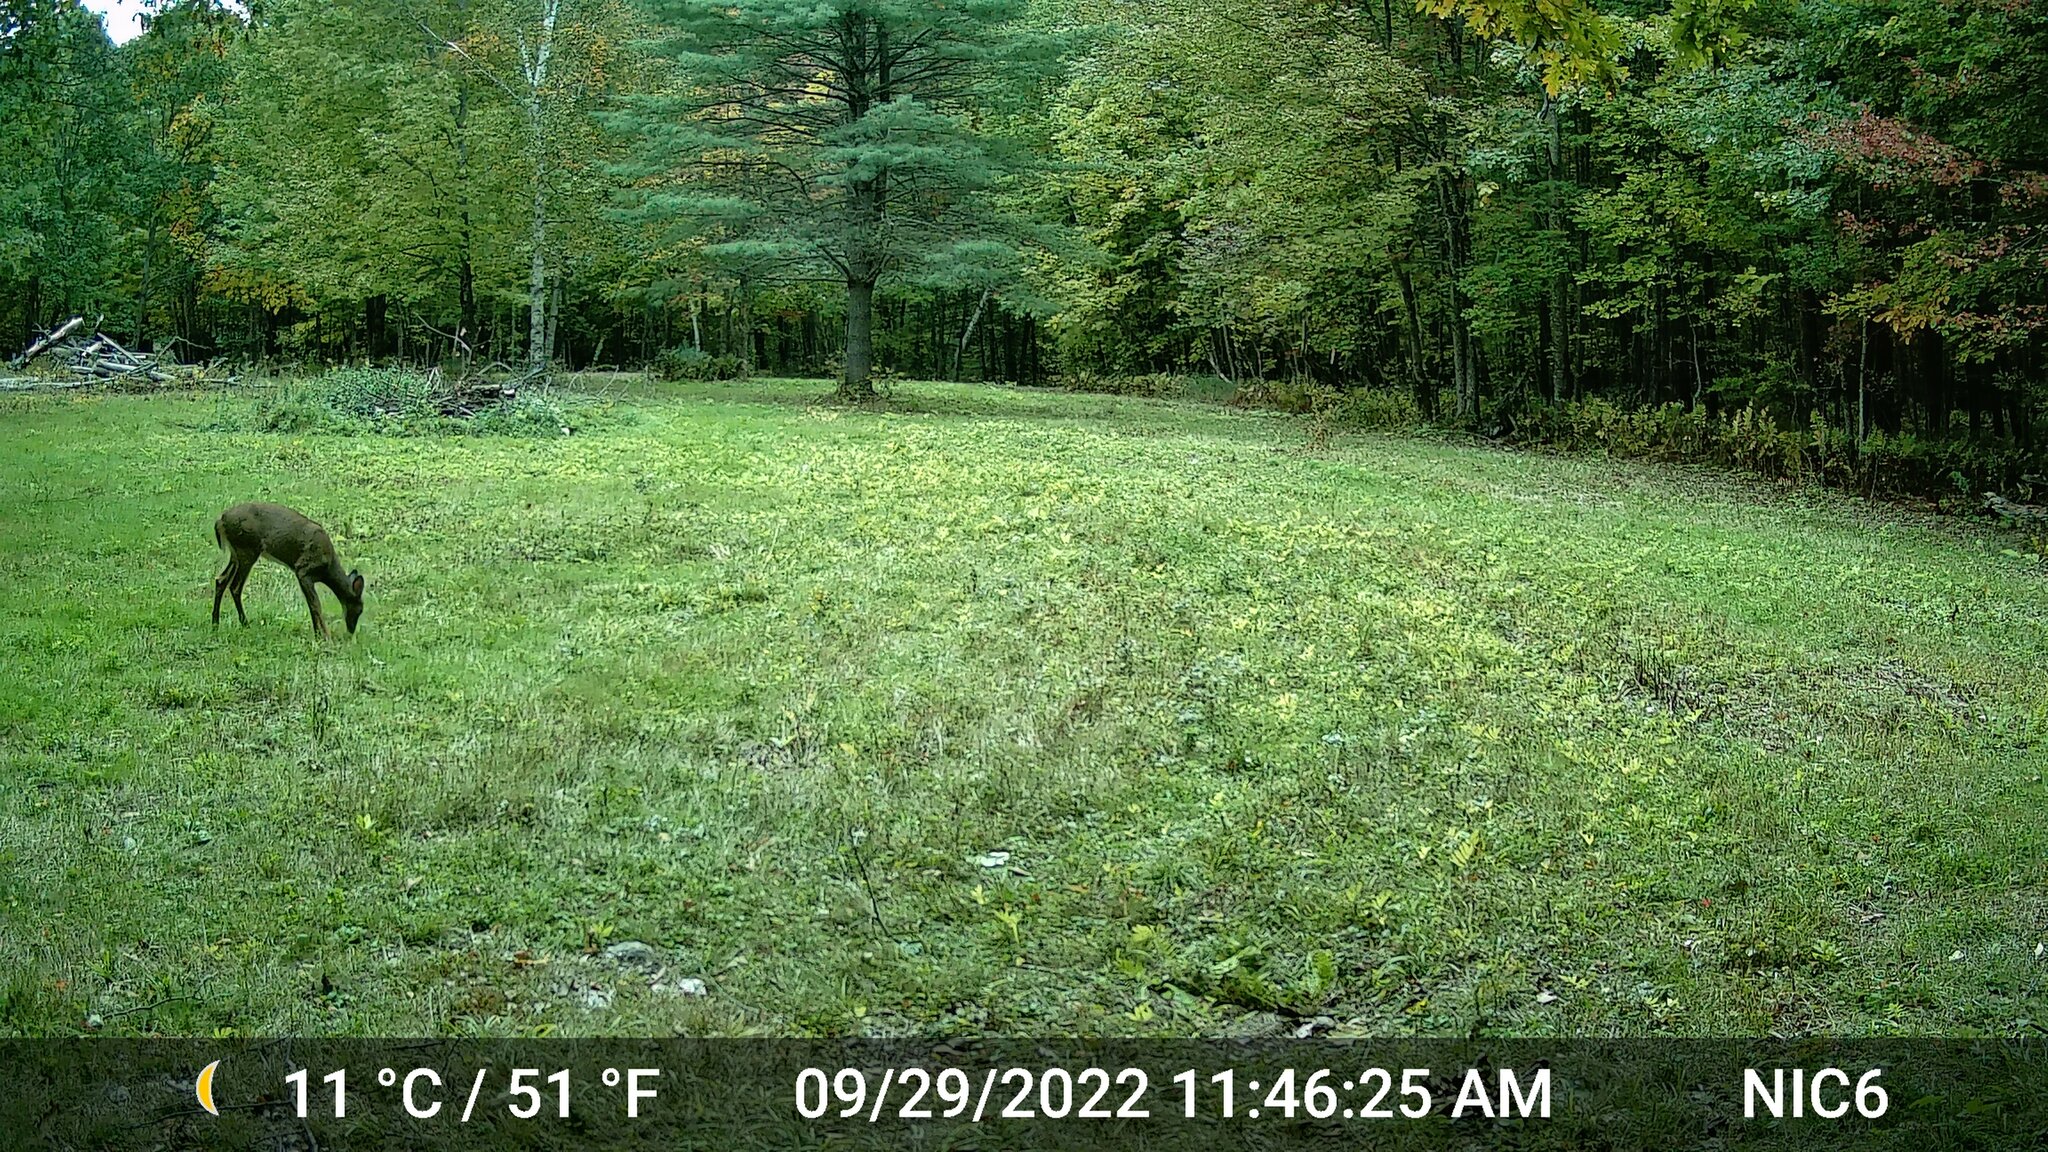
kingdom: Animalia
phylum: Chordata
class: Mammalia
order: Artiodactyla
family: Cervidae
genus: Odocoileus
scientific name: Odocoileus virginianus
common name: White-tailed deer
